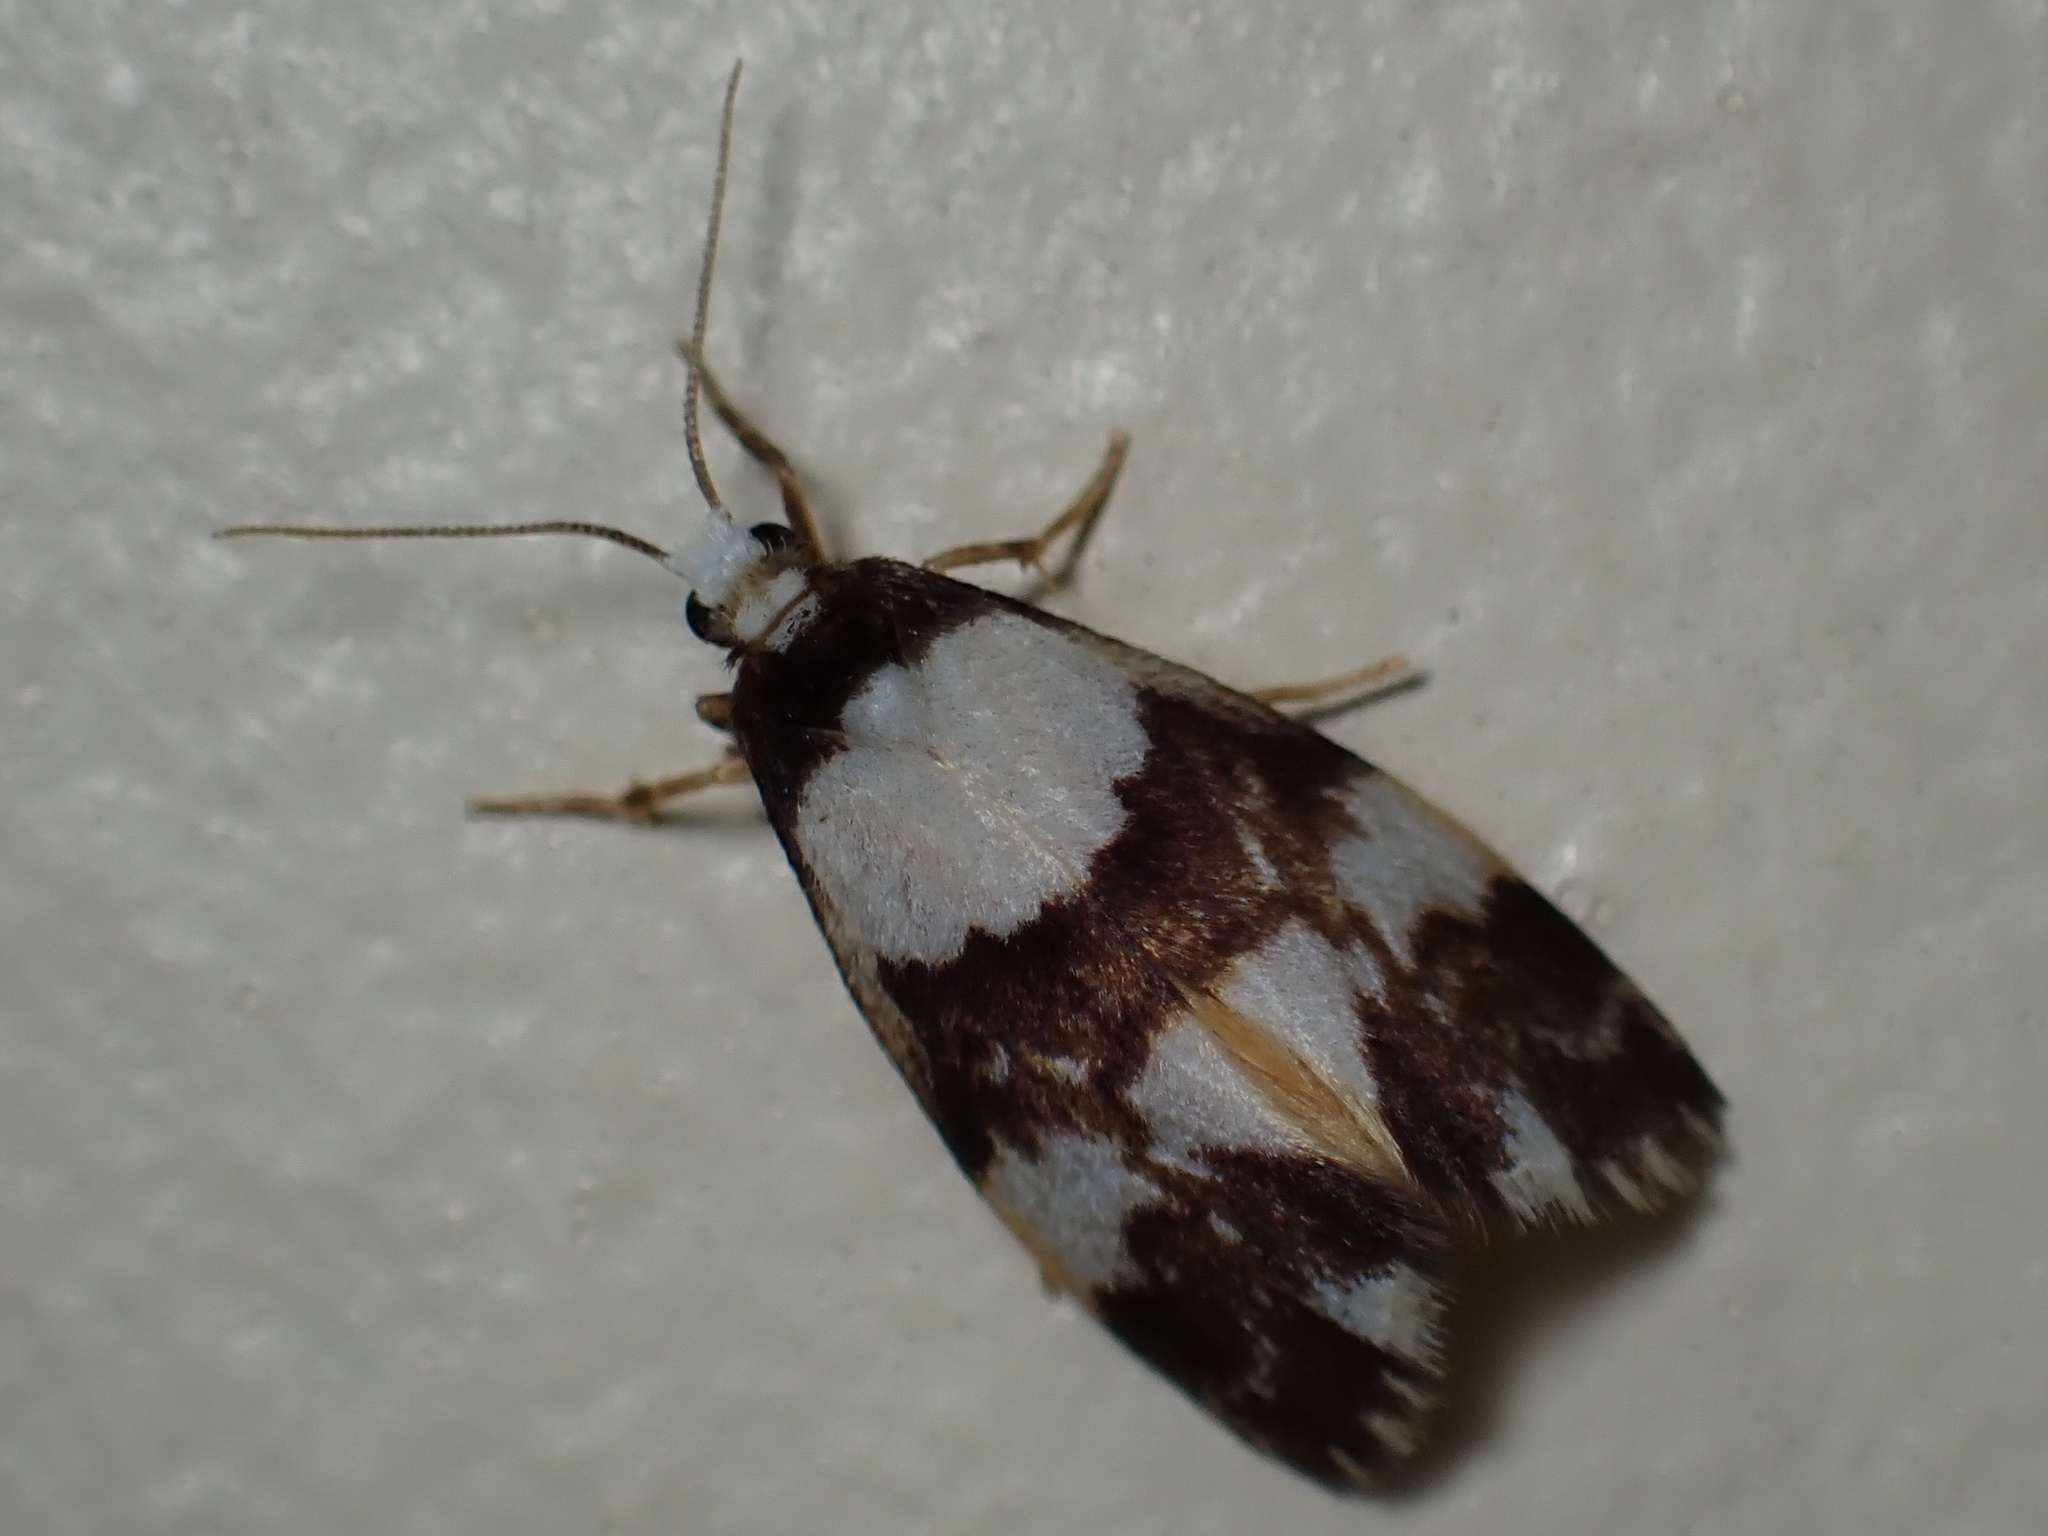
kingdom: Animalia
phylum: Arthropoda
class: Insecta
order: Lepidoptera
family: Erebidae
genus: Philenora
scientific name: Philenora aspectalella
